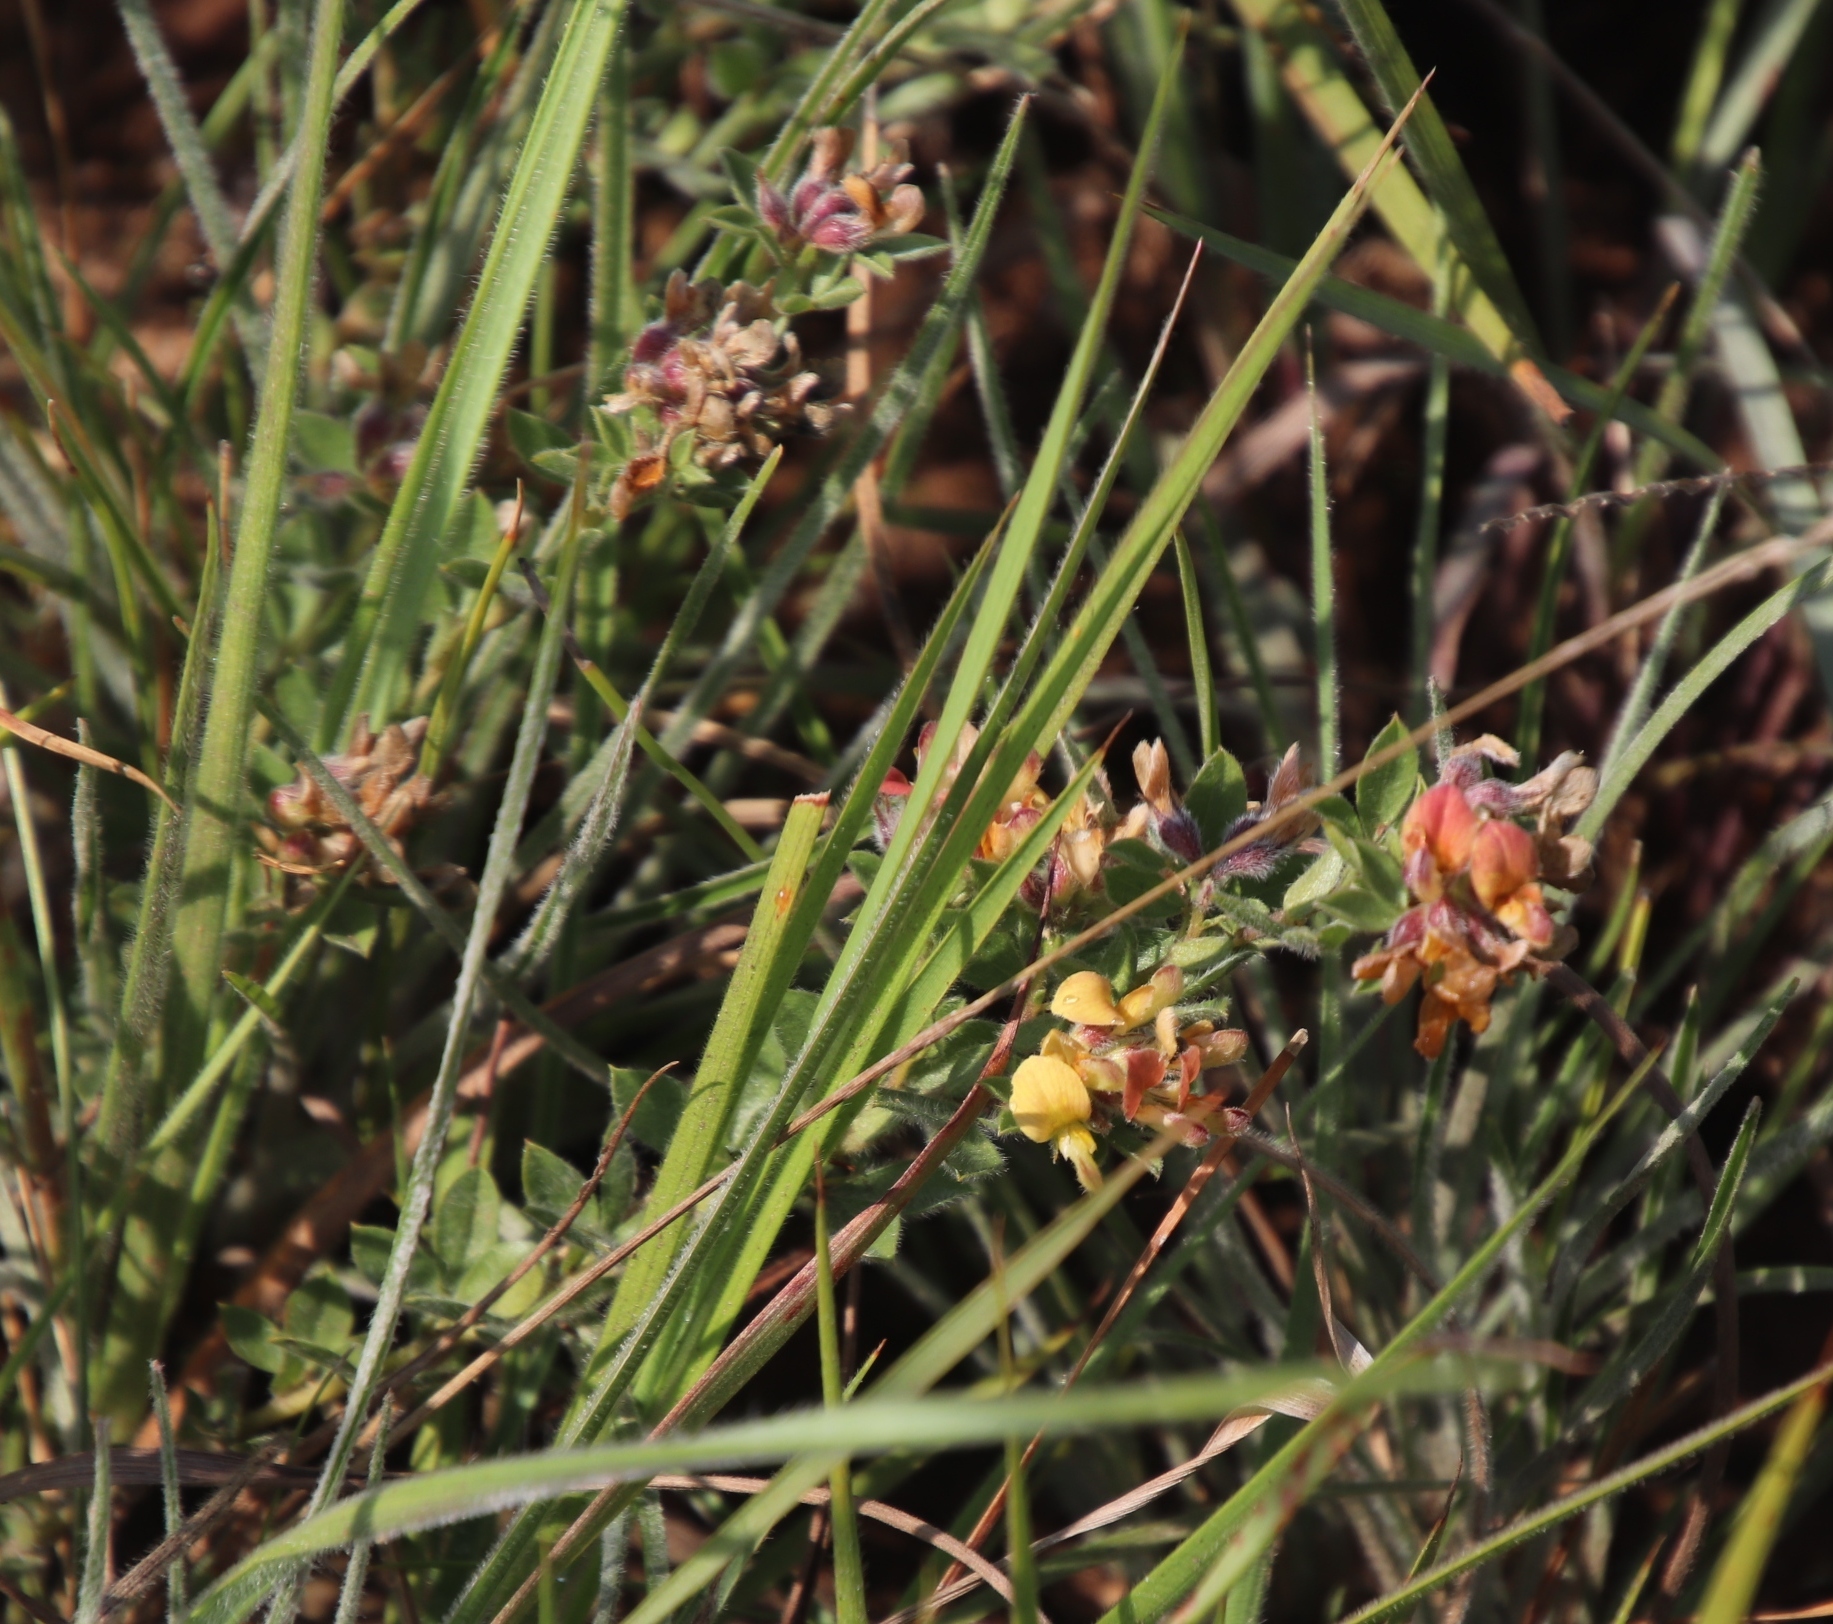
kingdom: Plantae
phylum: Tracheophyta
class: Magnoliopsida
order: Fabales
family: Fabaceae
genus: Leobordea
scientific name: Leobordea eriantha
